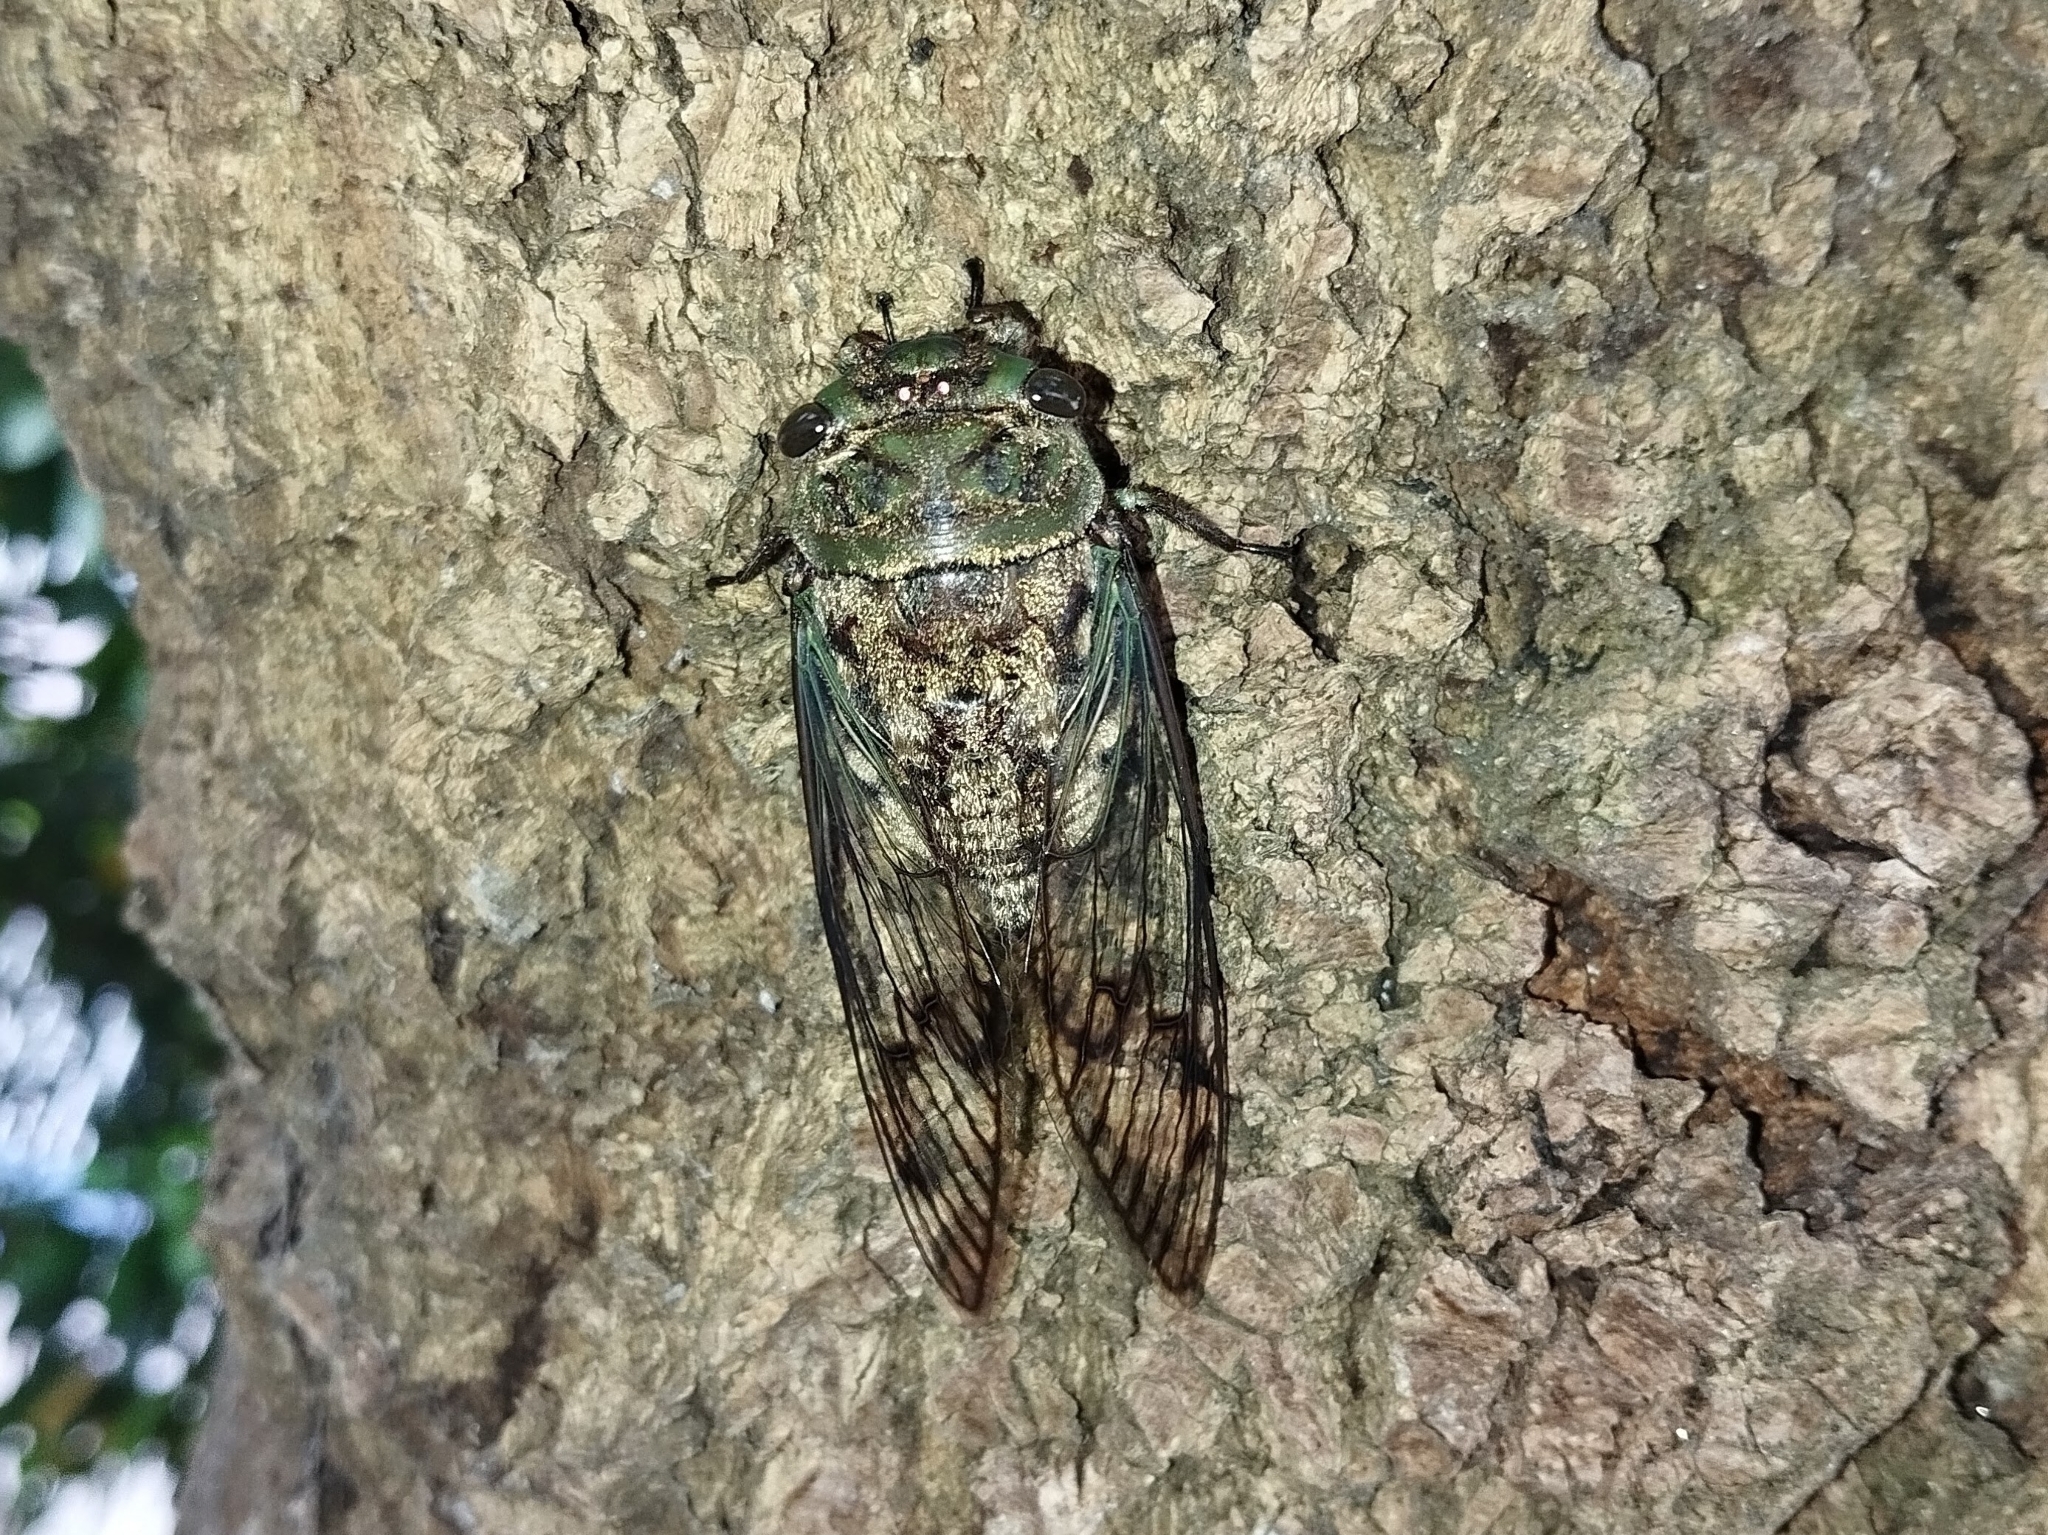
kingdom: Animalia
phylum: Arthropoda
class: Insecta
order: Hemiptera
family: Cicadidae
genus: Fidicina
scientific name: Fidicina toulgoeti
